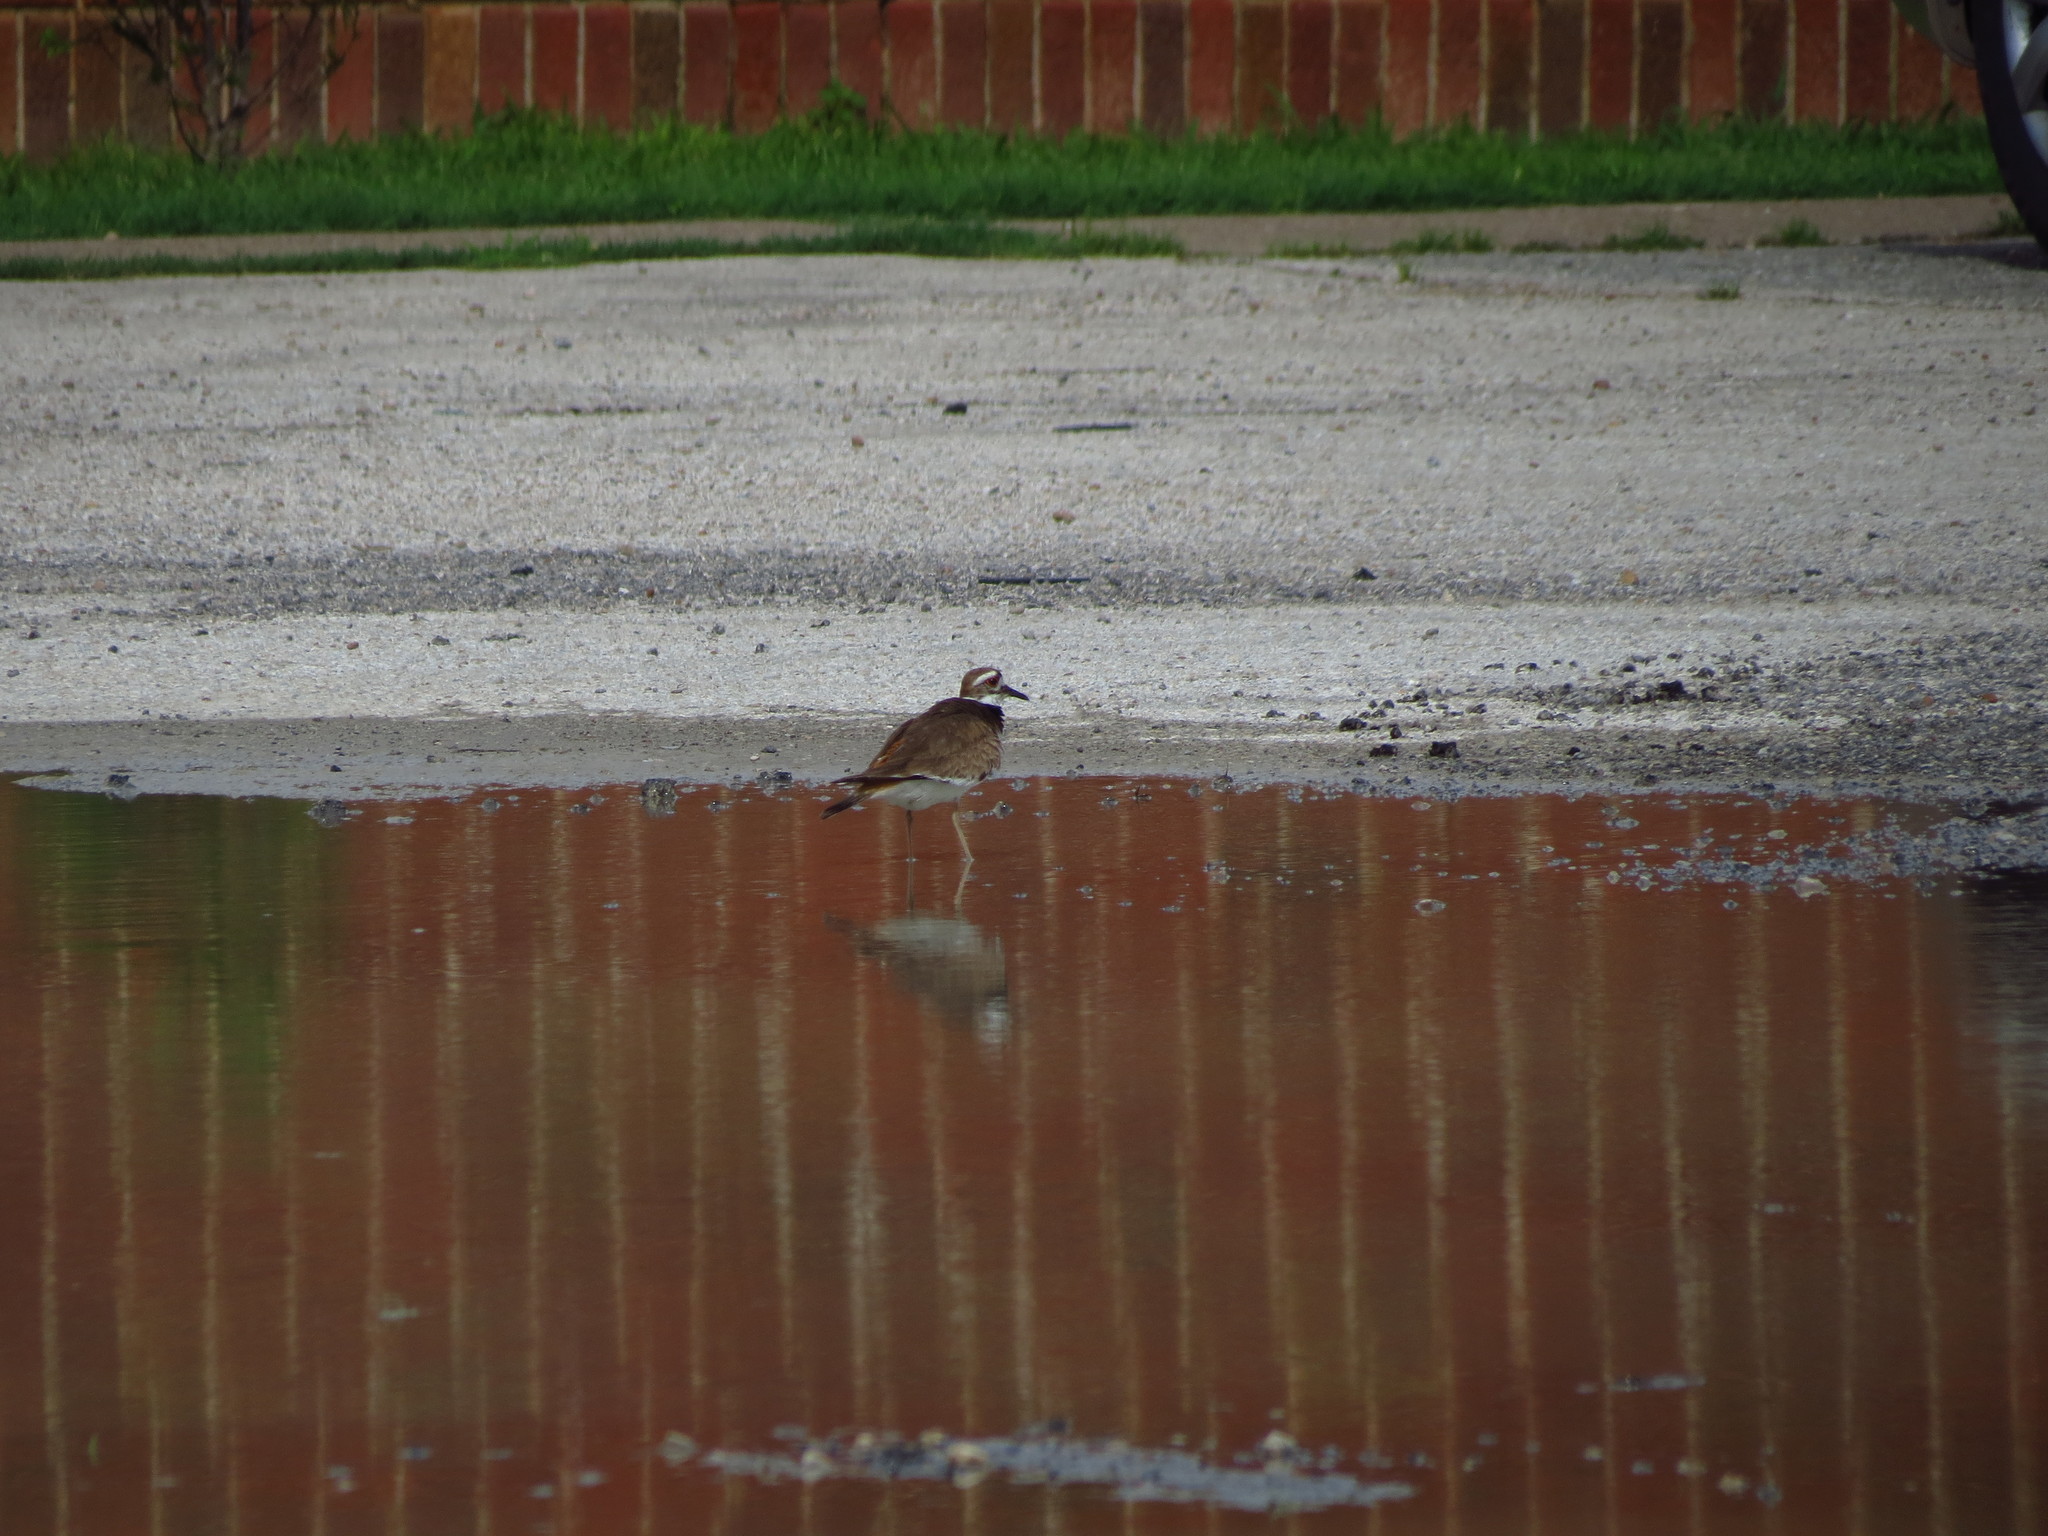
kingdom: Animalia
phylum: Chordata
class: Aves
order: Charadriiformes
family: Charadriidae
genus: Charadrius
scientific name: Charadrius vociferus
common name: Killdeer
